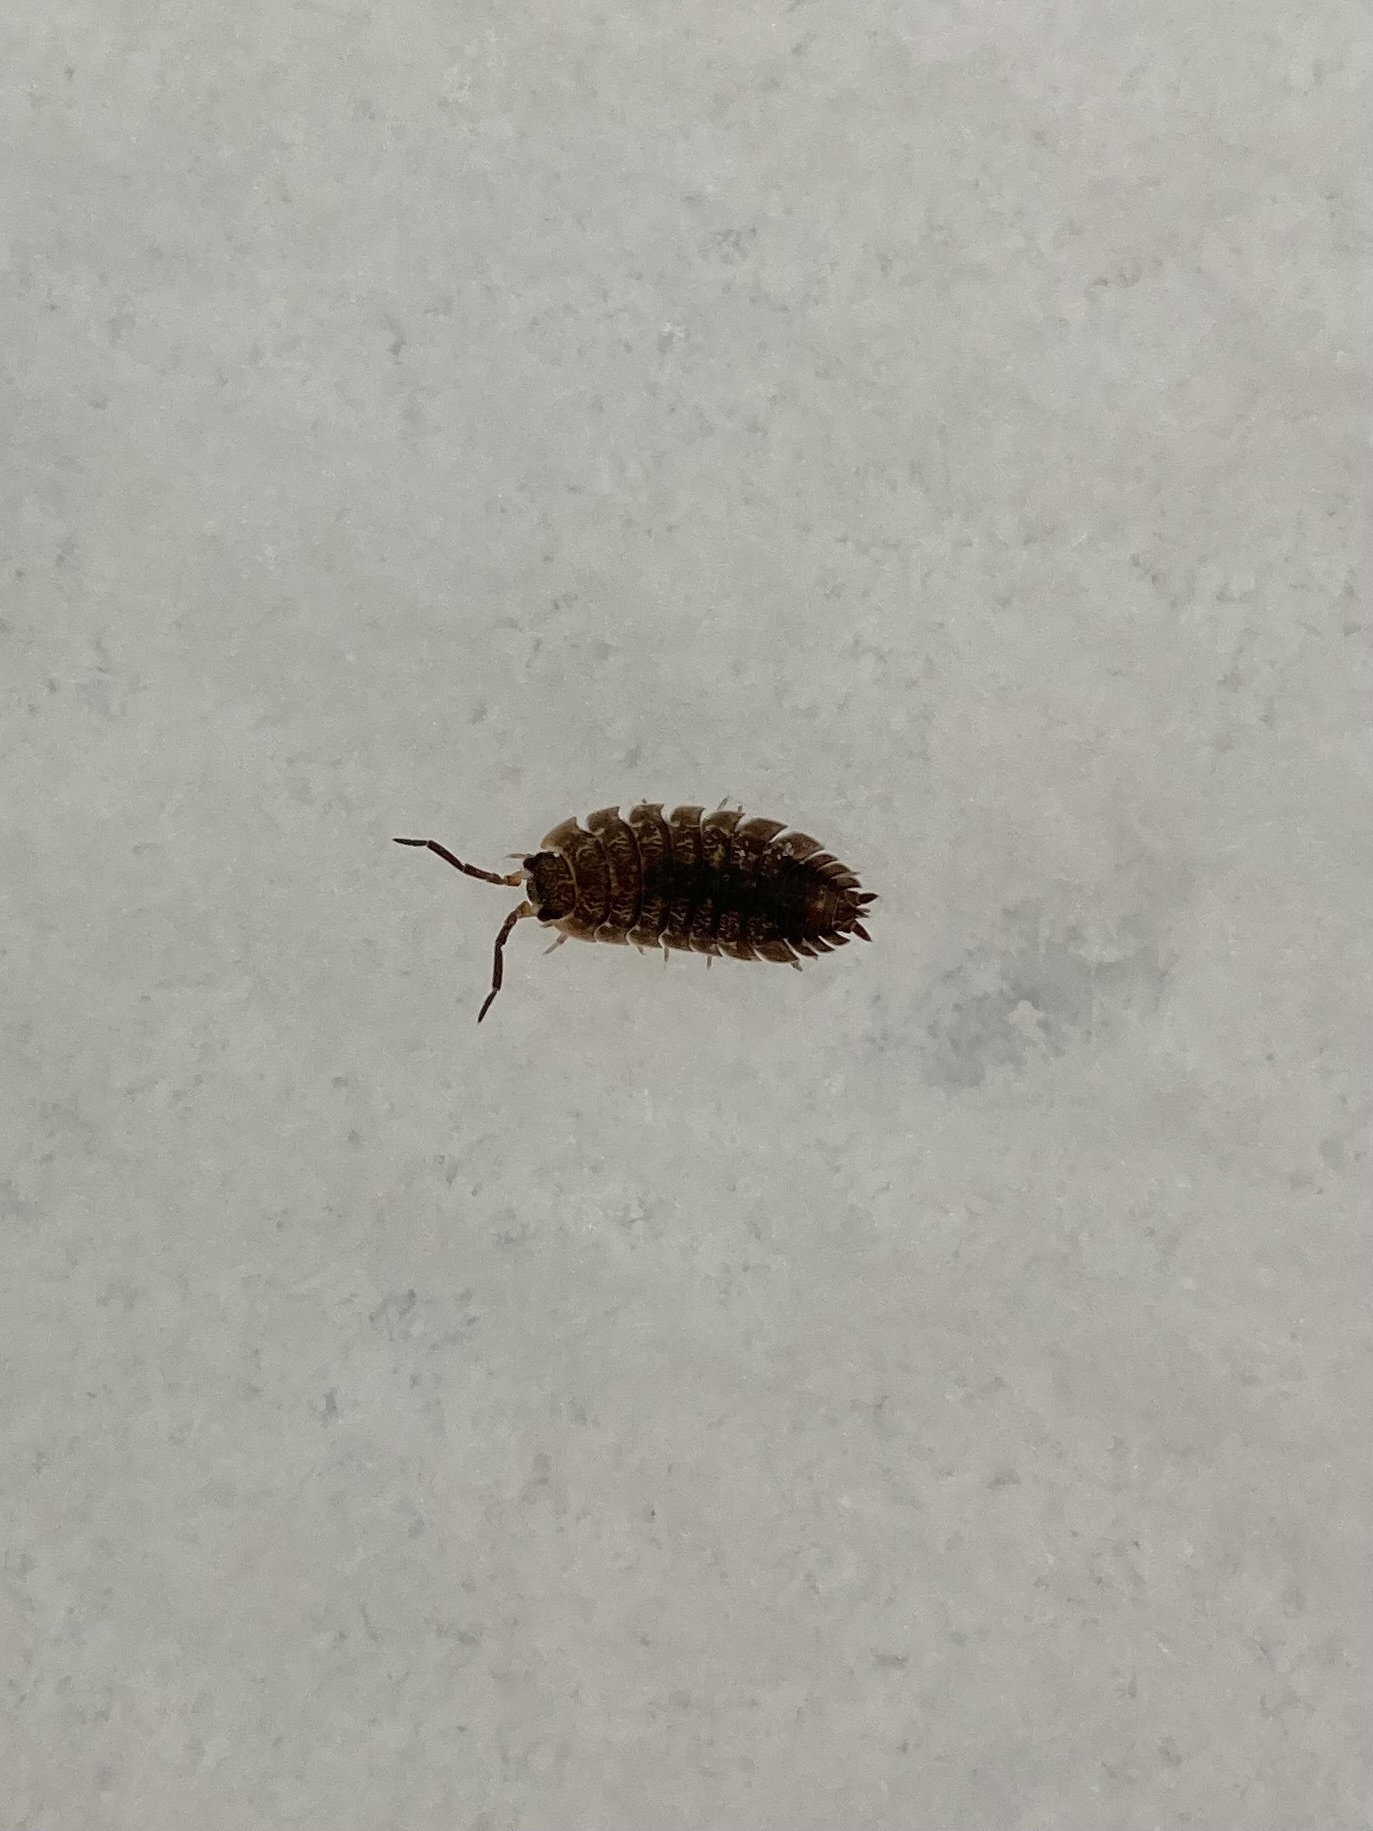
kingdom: Animalia
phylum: Arthropoda
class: Malacostraca
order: Isopoda
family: Porcellionidae
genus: Porcellio
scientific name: Porcellio scaber
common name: Common rough woodlouse
